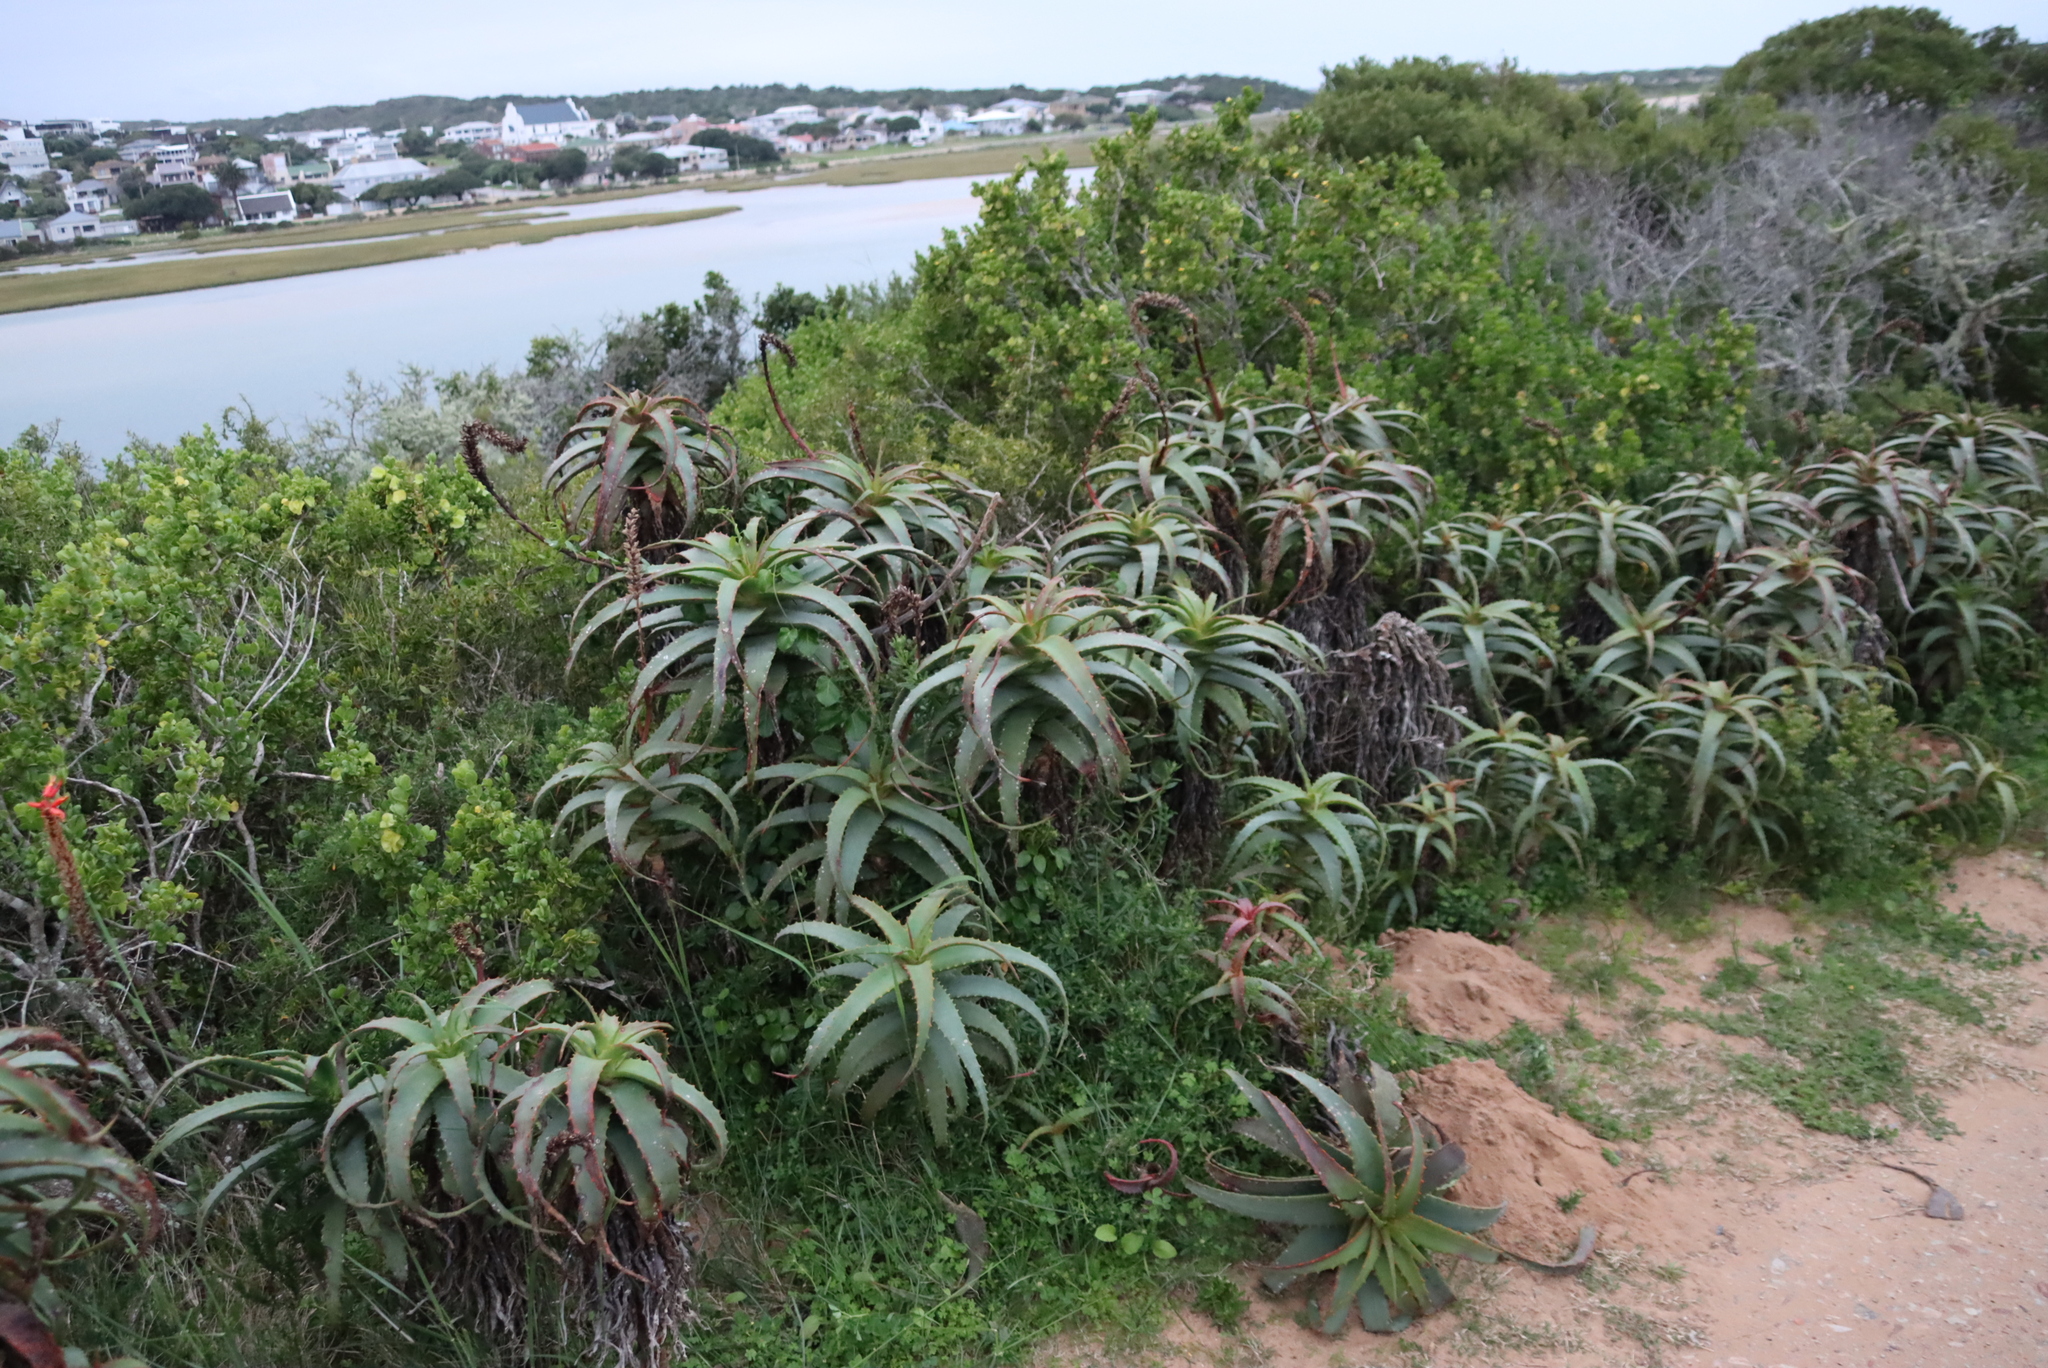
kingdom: Plantae
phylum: Tracheophyta
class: Liliopsida
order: Asparagales
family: Asphodelaceae
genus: Aloe
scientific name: Aloe arborescens
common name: Candelabra aloe
